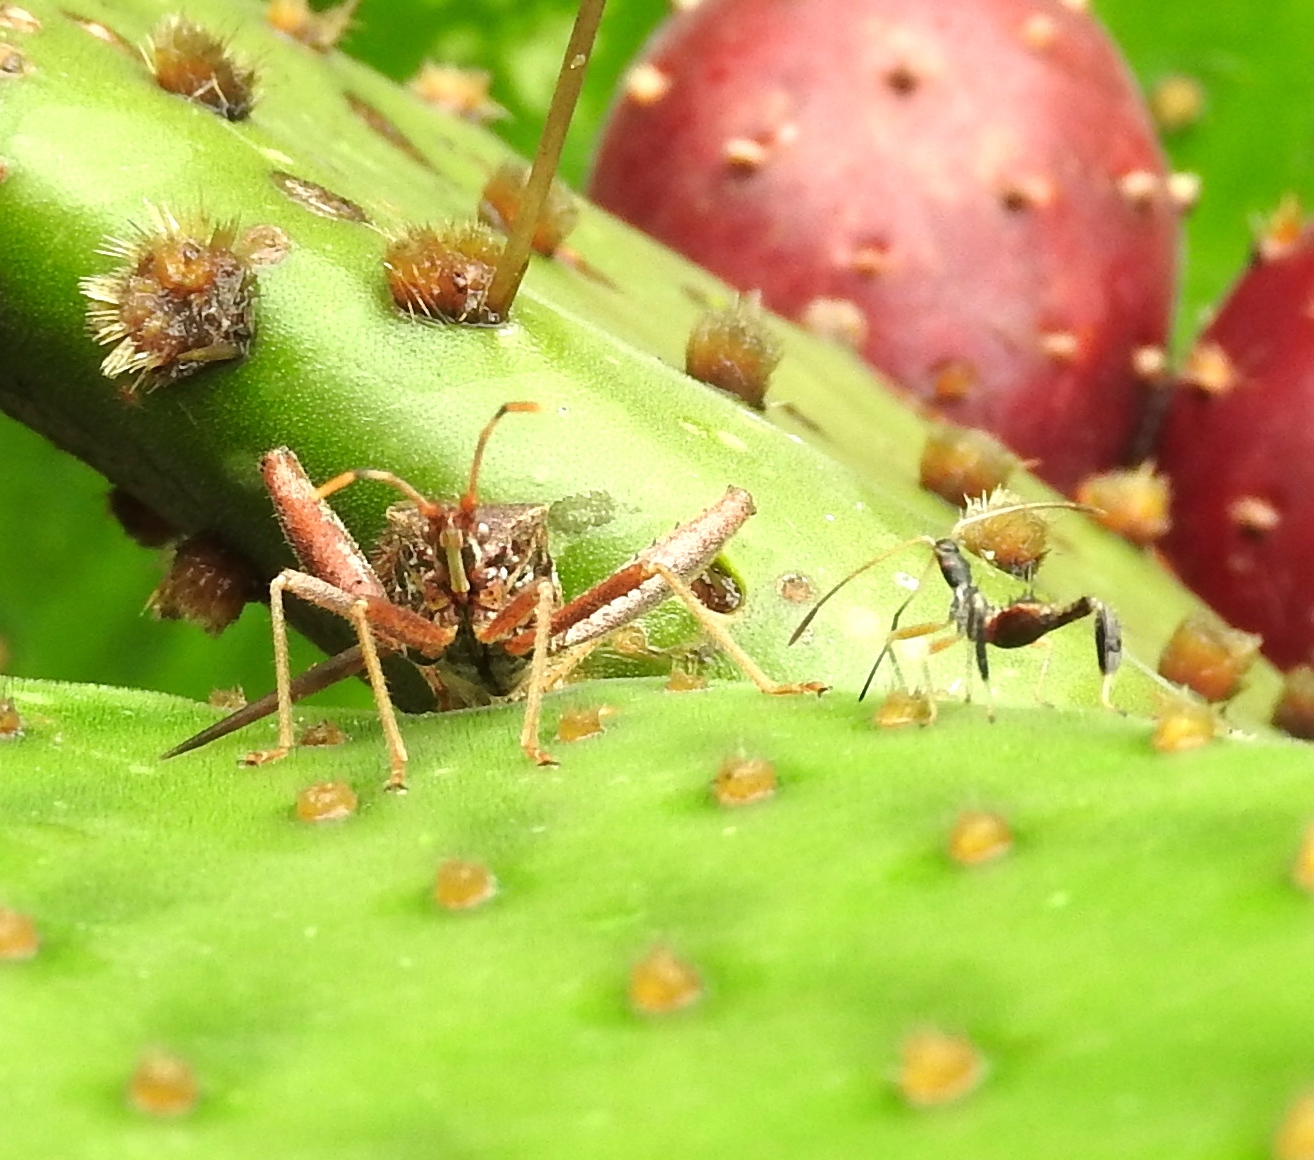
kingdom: Animalia
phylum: Arthropoda
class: Insecta
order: Hemiptera
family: Coreidae
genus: Narnia
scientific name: Narnia
